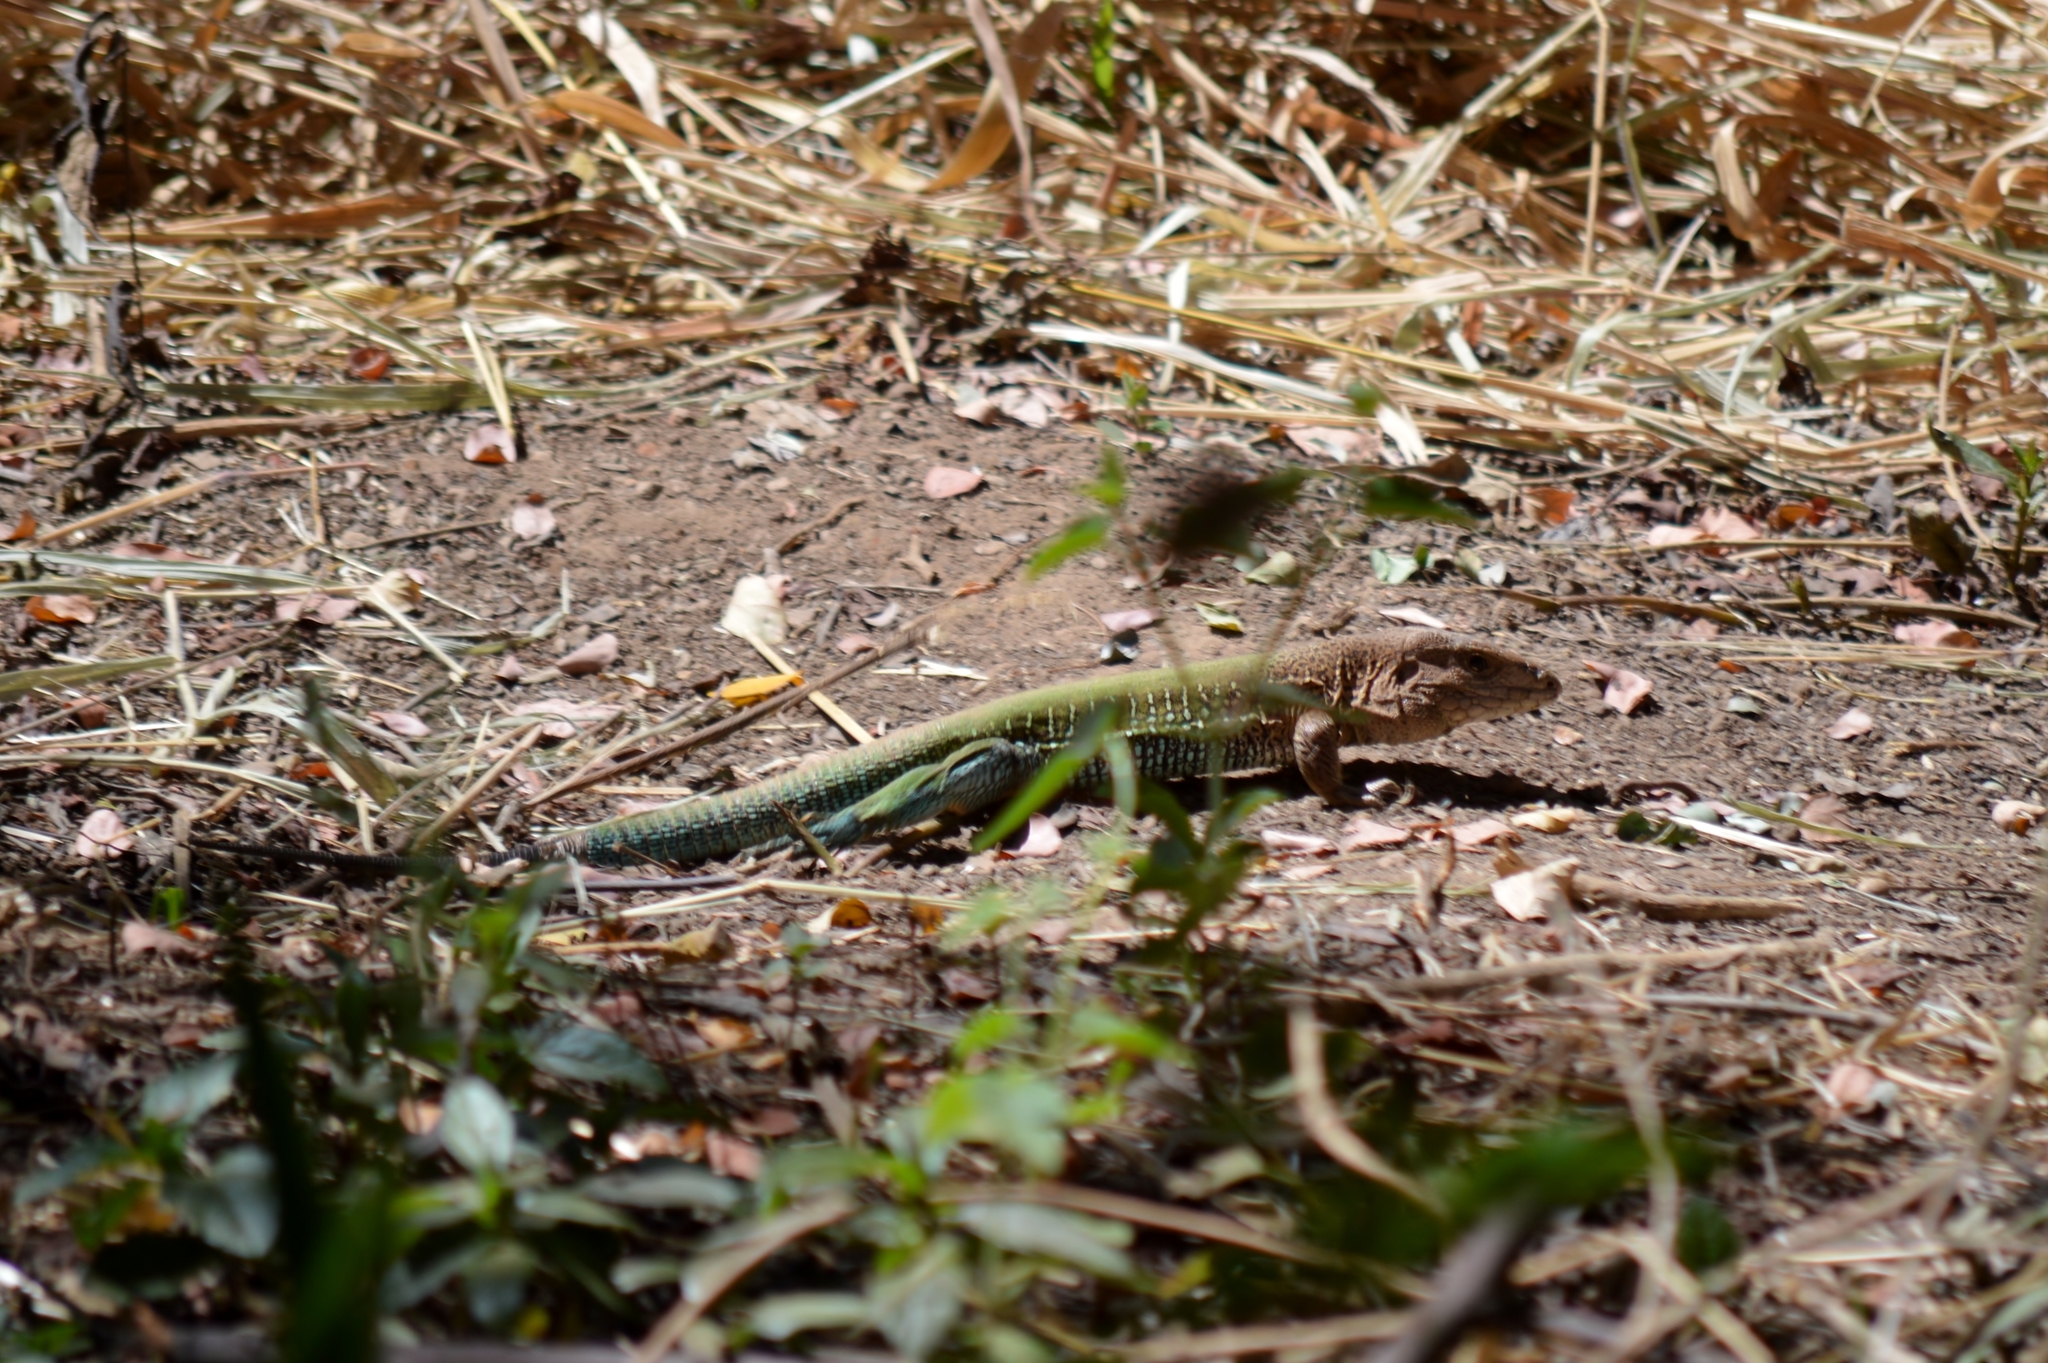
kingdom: Animalia
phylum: Chordata
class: Squamata
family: Teiidae
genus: Ameiva
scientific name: Ameiva ameiva
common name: Giant ameiva
